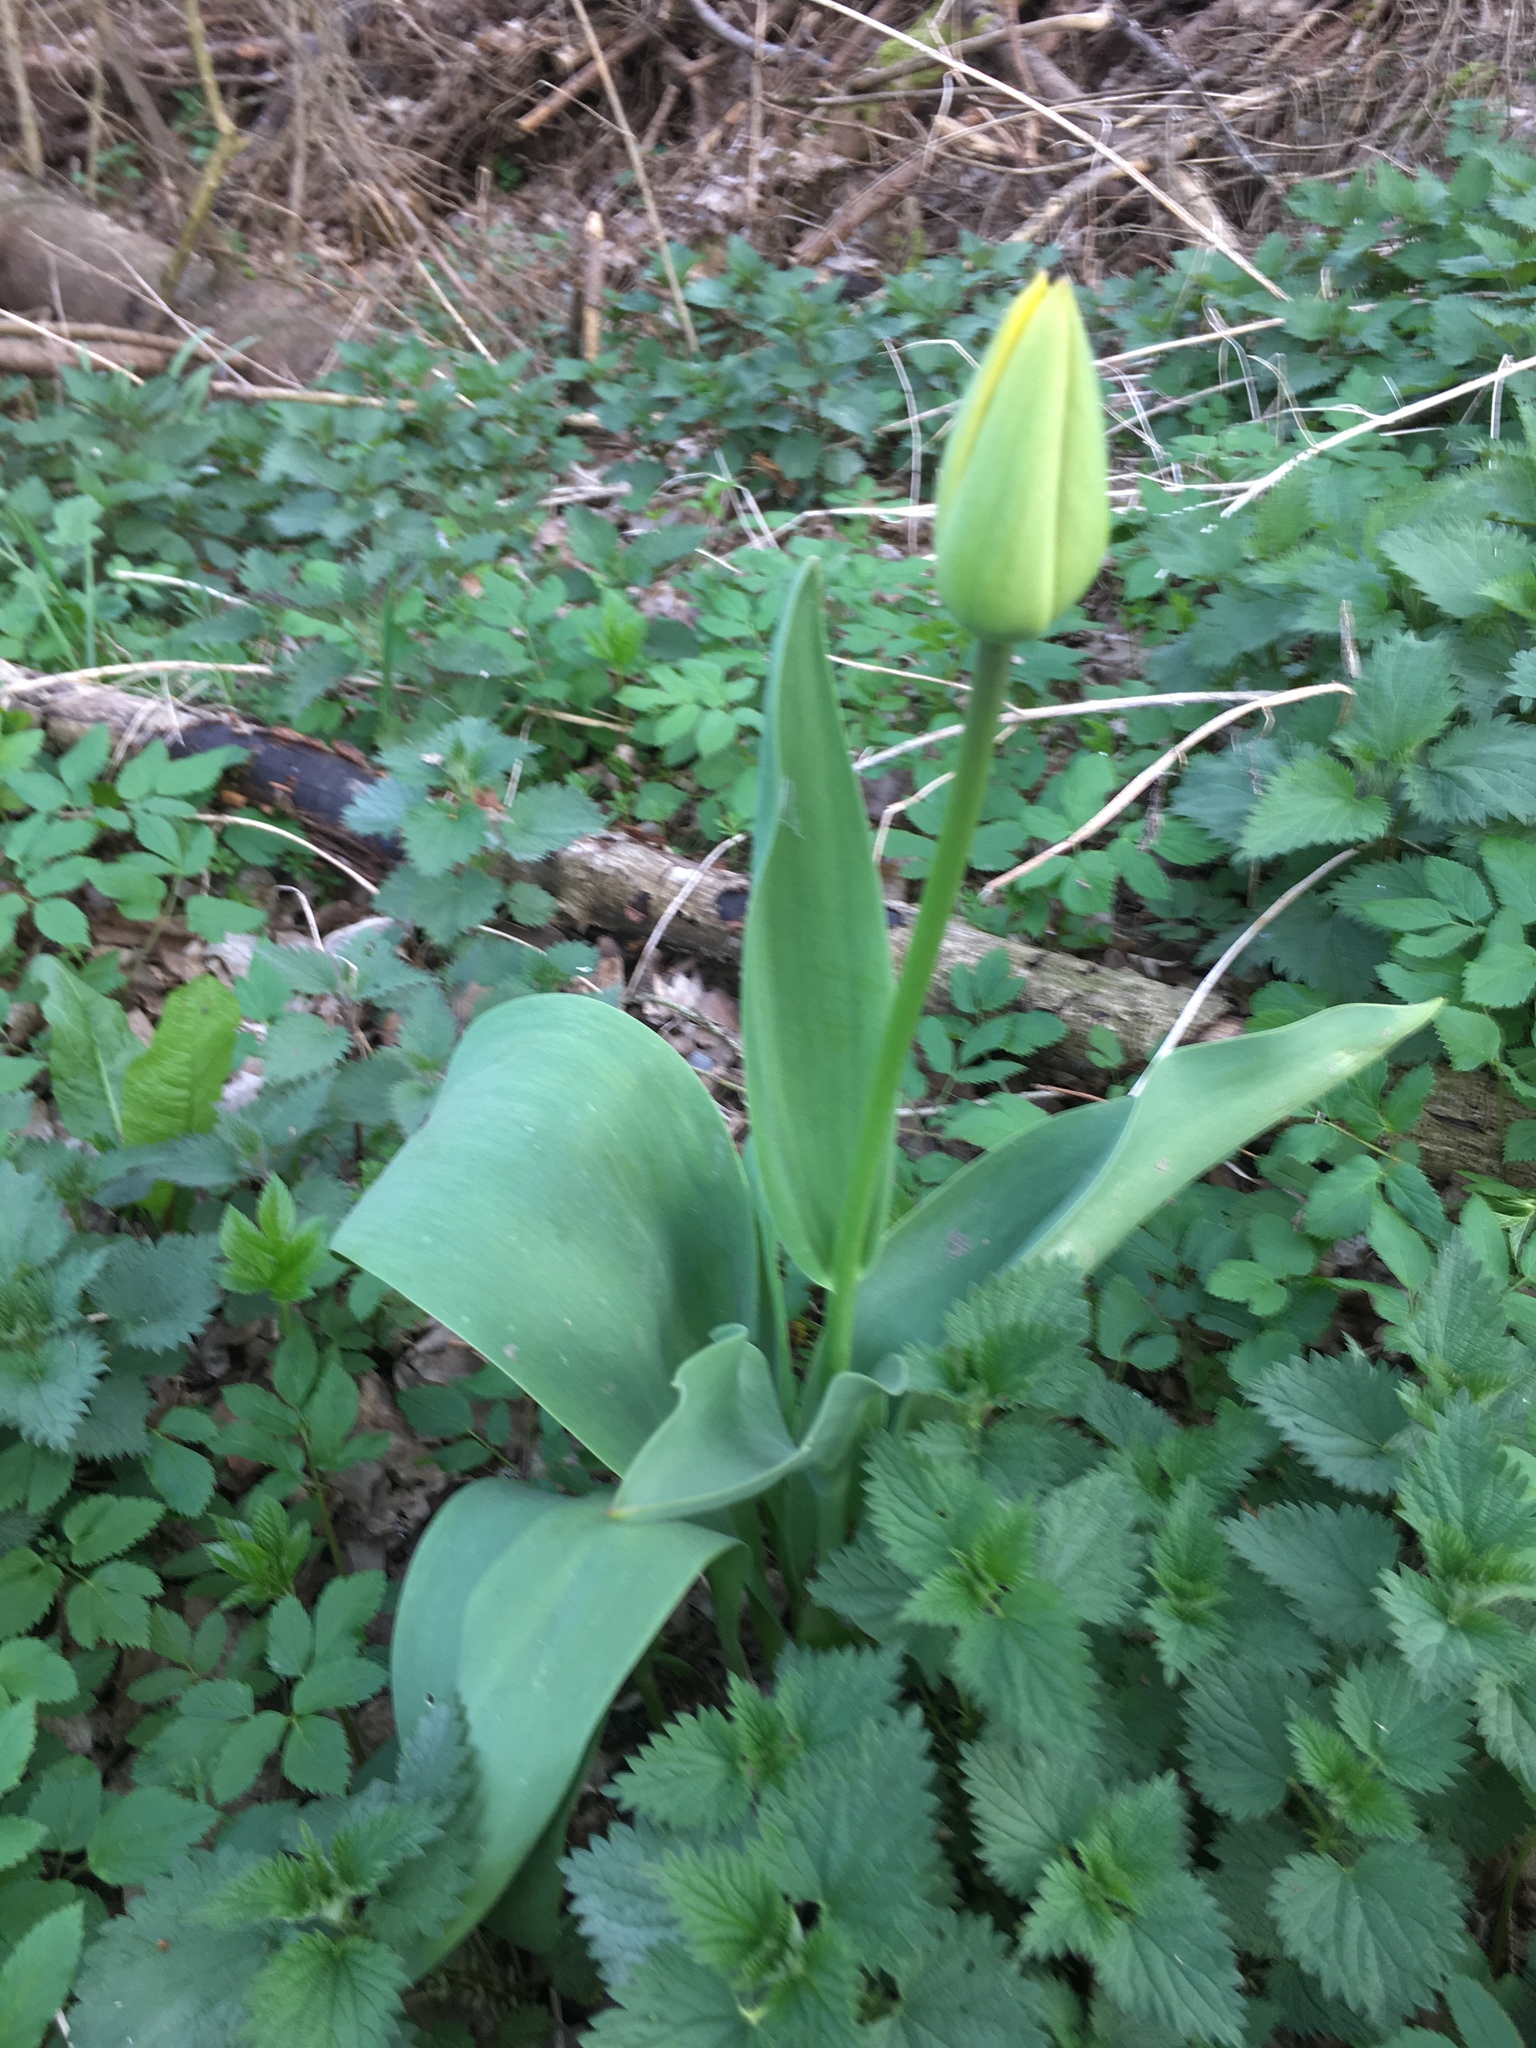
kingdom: Plantae
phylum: Tracheophyta
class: Liliopsida
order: Liliales
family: Liliaceae
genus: Tulipa
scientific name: Tulipa gesneriana
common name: Garden tulip
